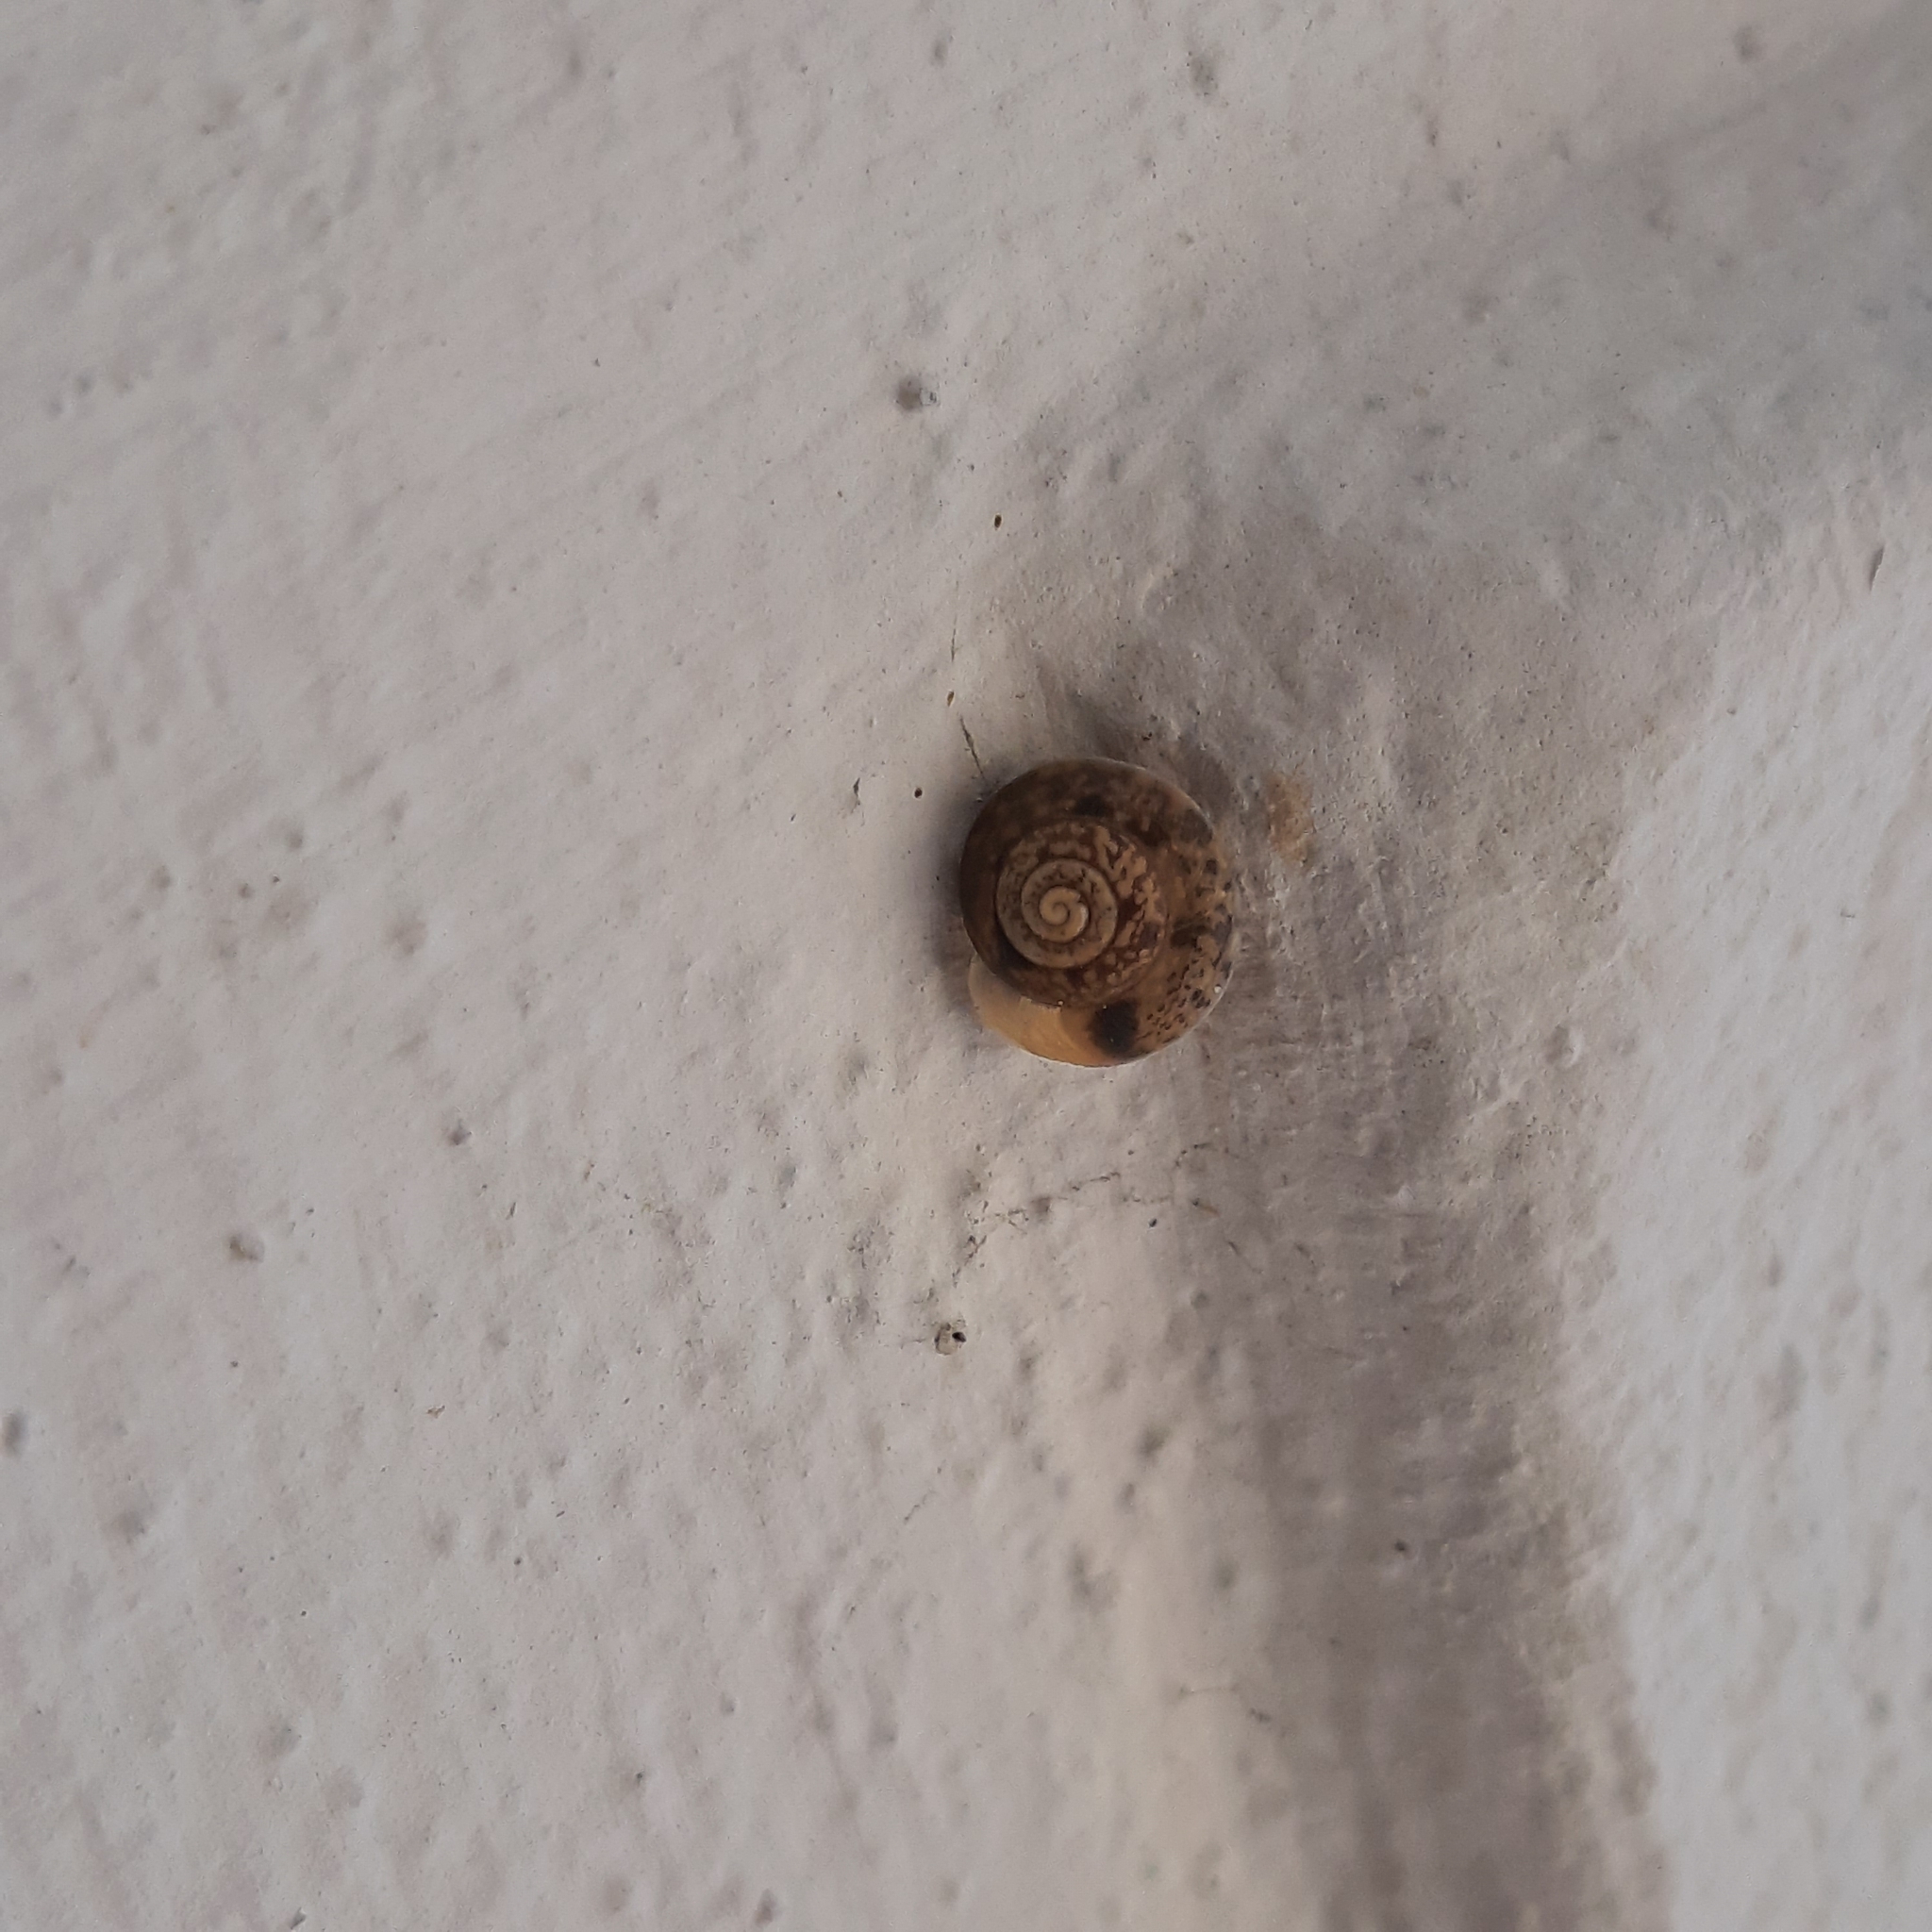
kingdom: Animalia
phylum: Mollusca
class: Gastropoda
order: Stylommatophora
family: Hygromiidae
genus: Hygromia
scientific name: Hygromia cinctella
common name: Girdled snail
